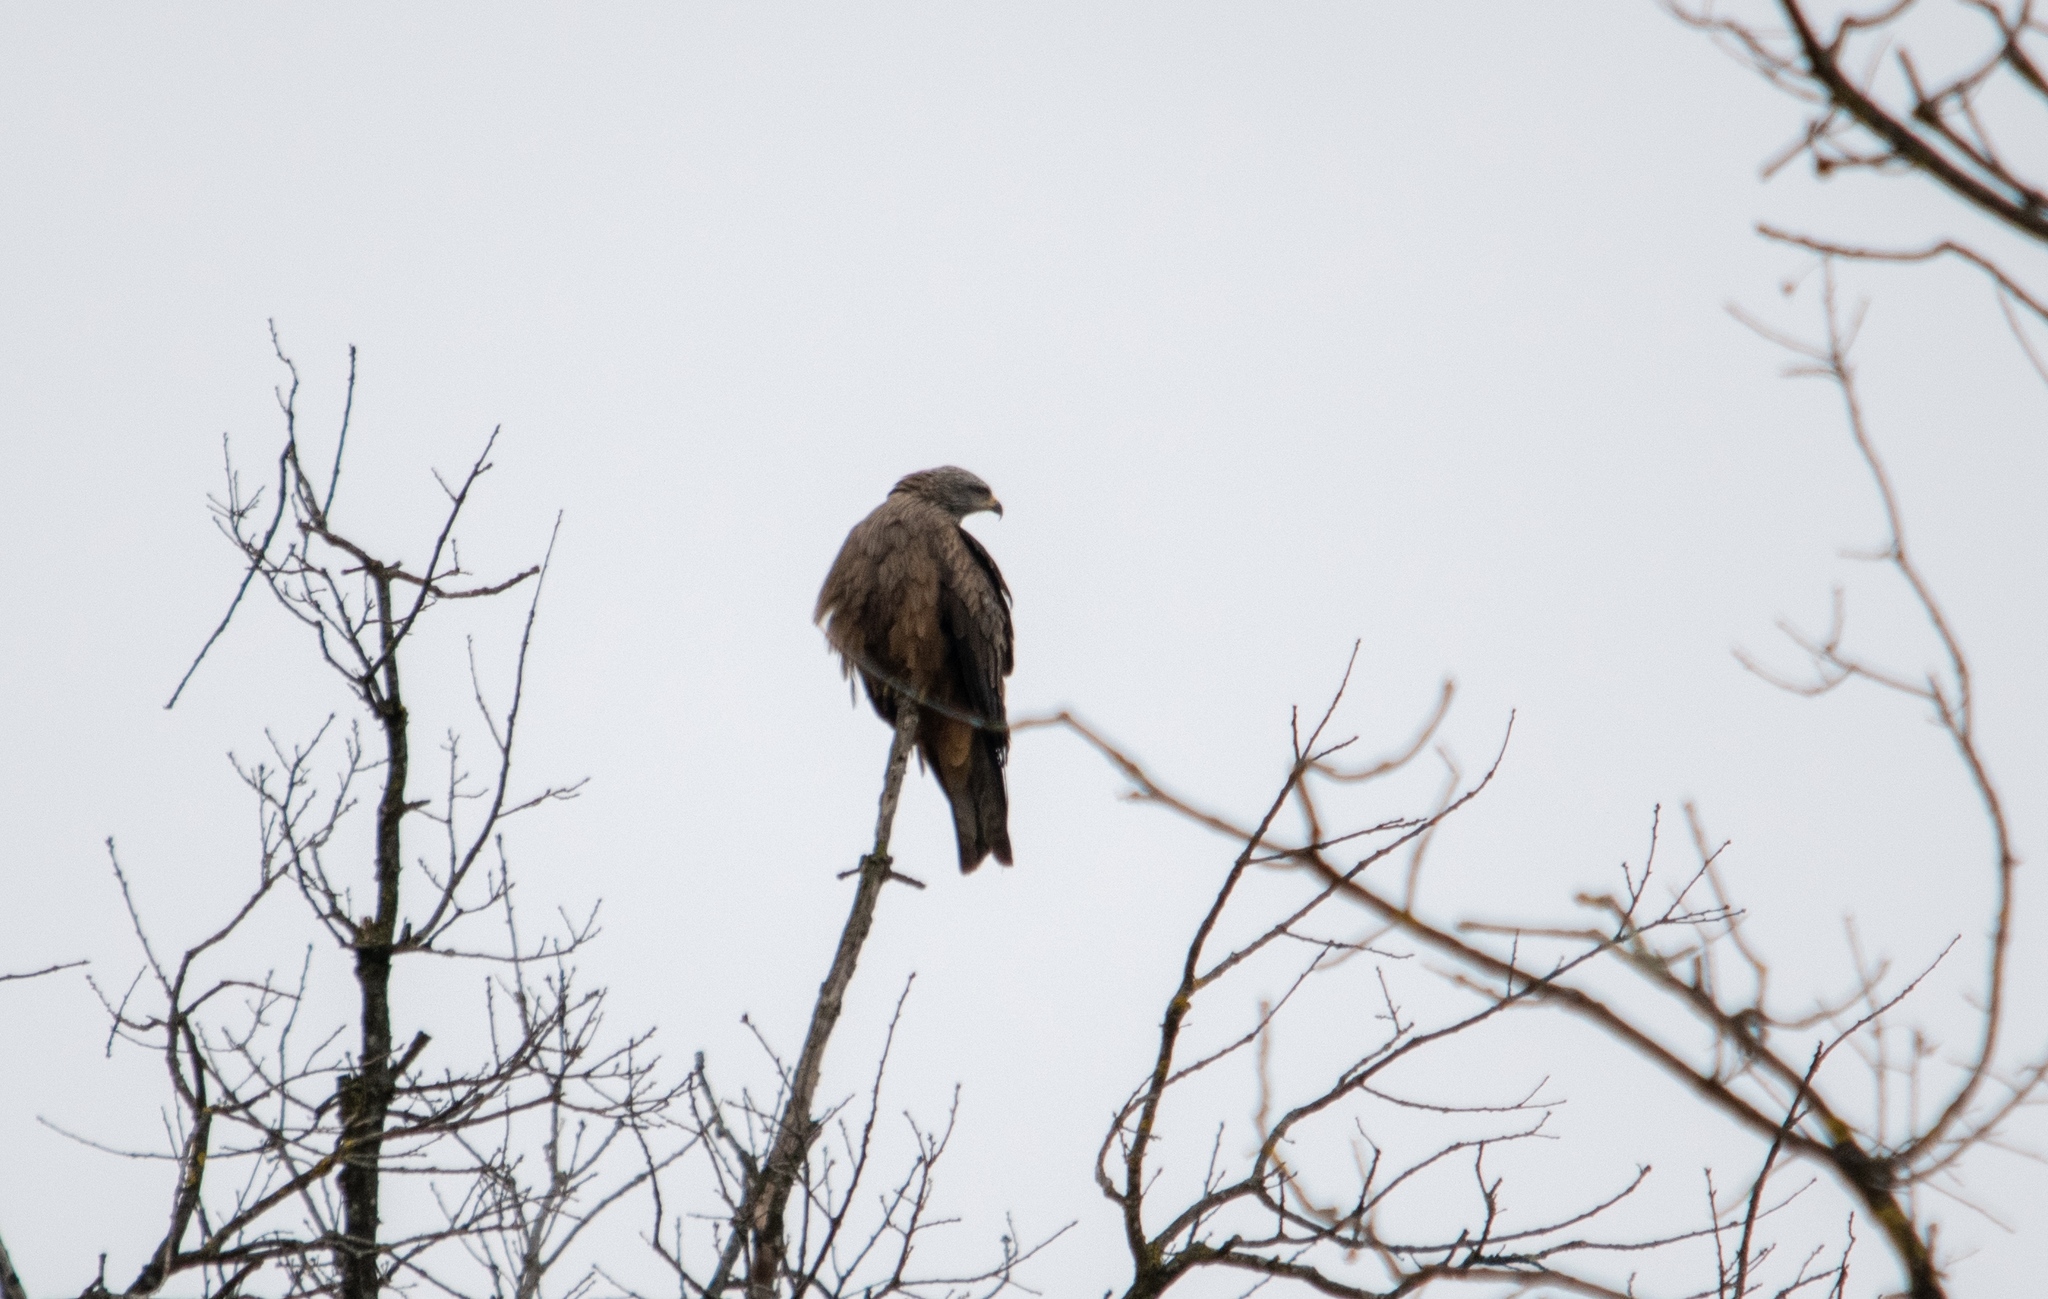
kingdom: Animalia
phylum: Chordata
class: Aves
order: Accipitriformes
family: Accipitridae
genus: Milvus
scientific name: Milvus migrans
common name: Black kite
